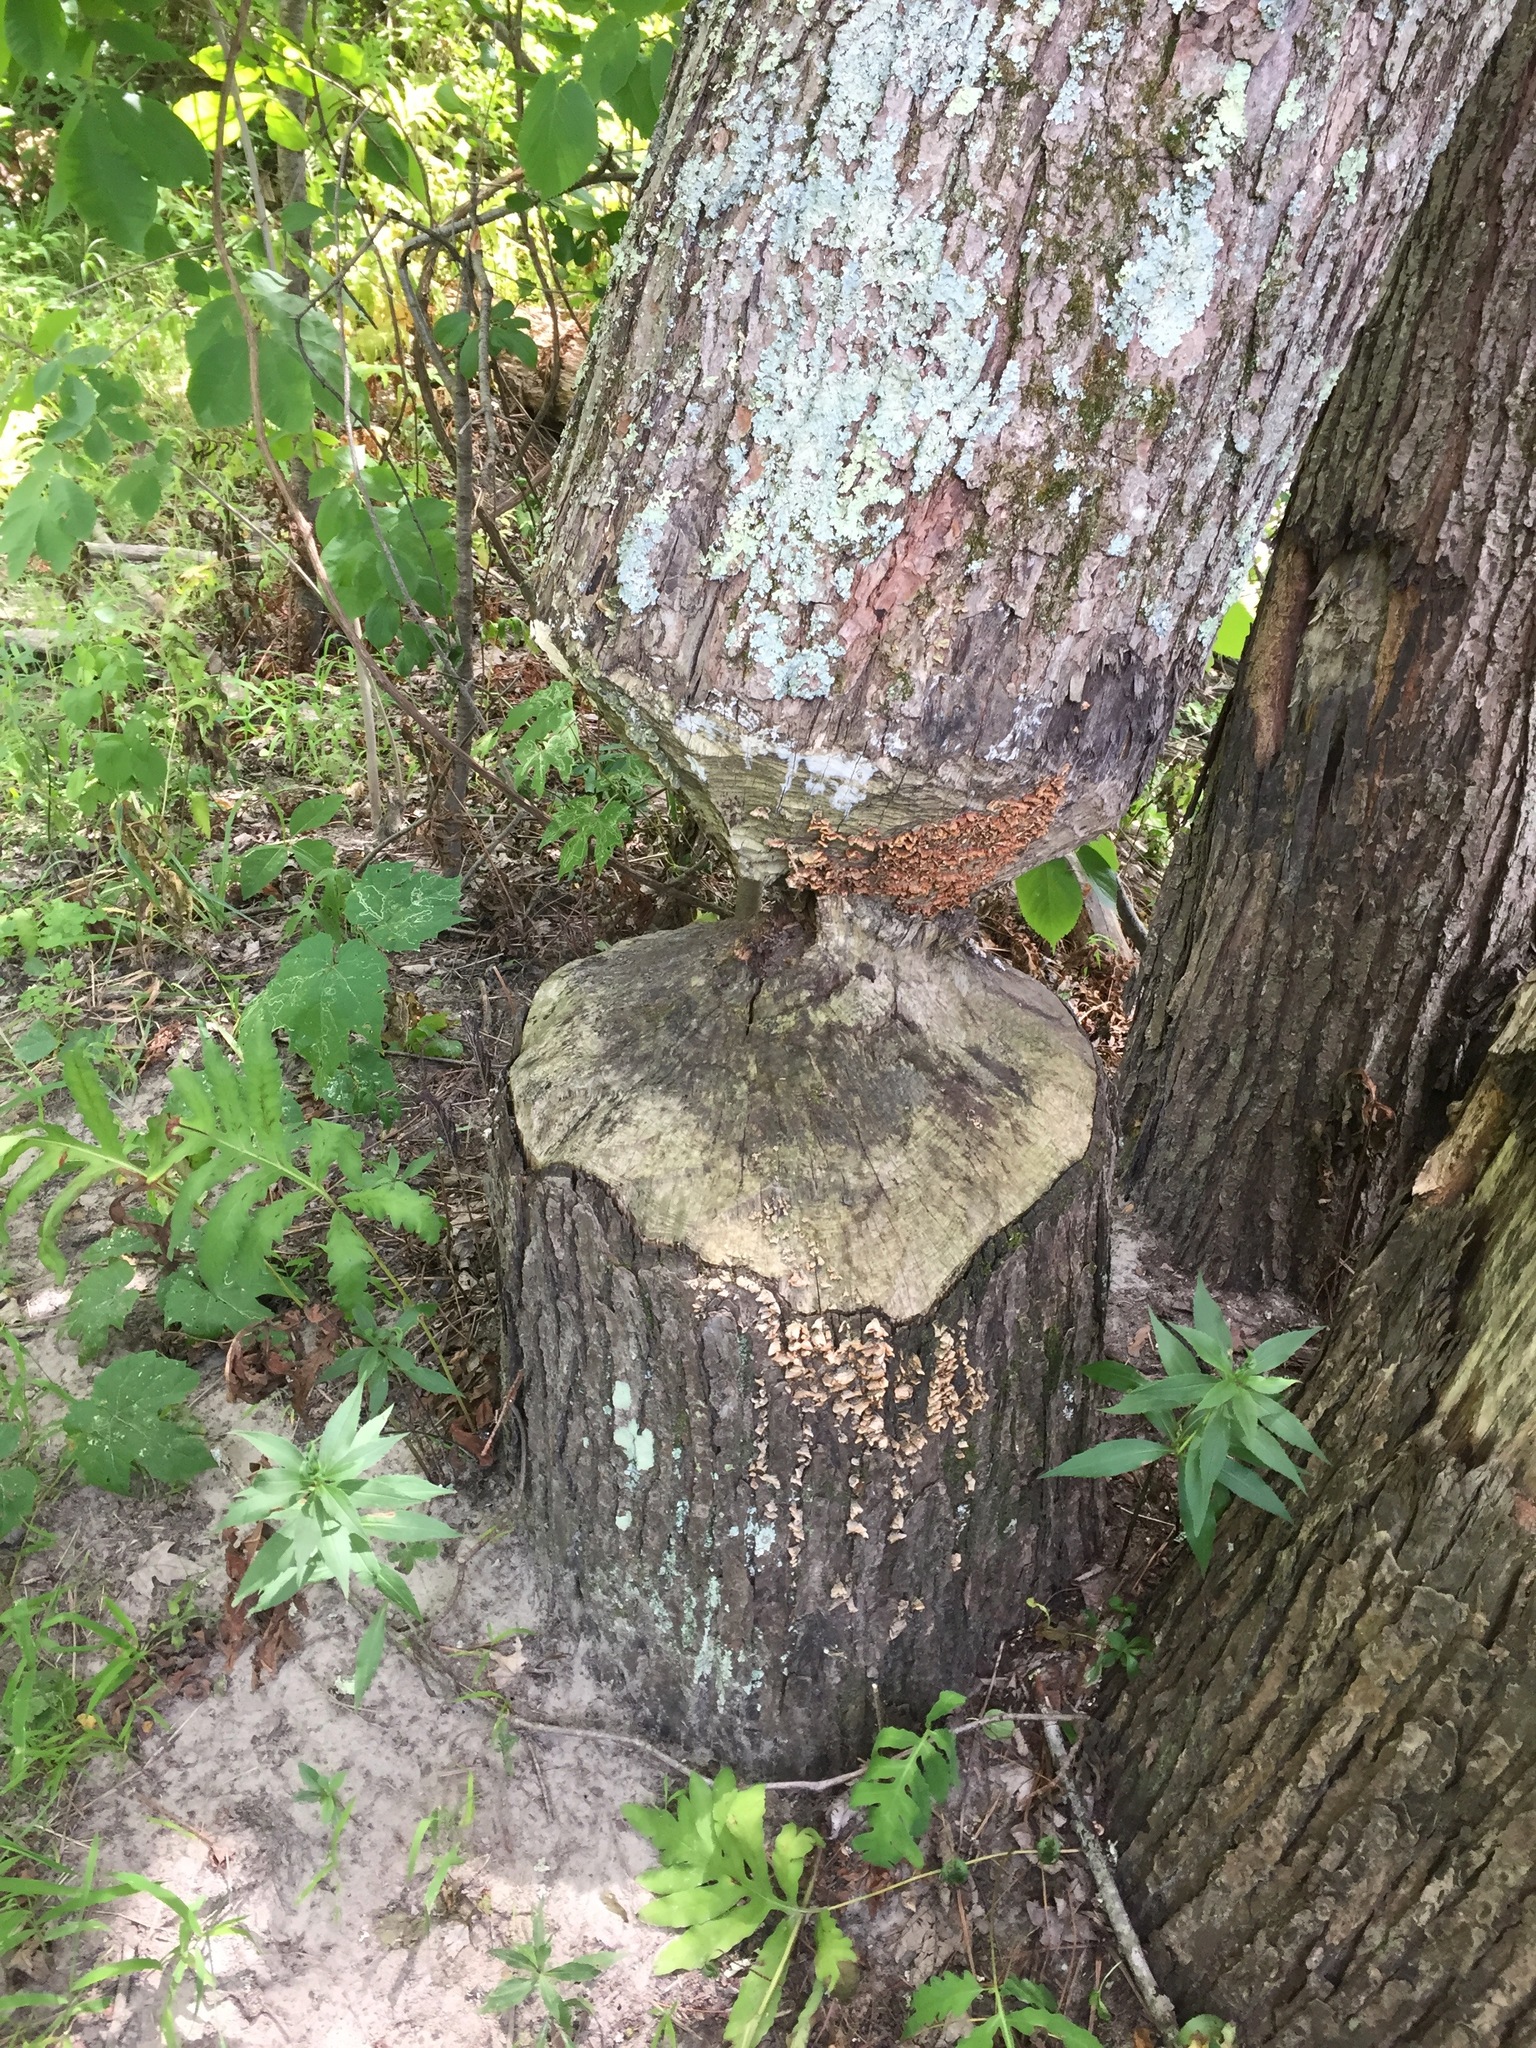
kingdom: Animalia
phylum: Chordata
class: Mammalia
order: Rodentia
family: Castoridae
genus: Castor
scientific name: Castor canadensis
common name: American beaver
